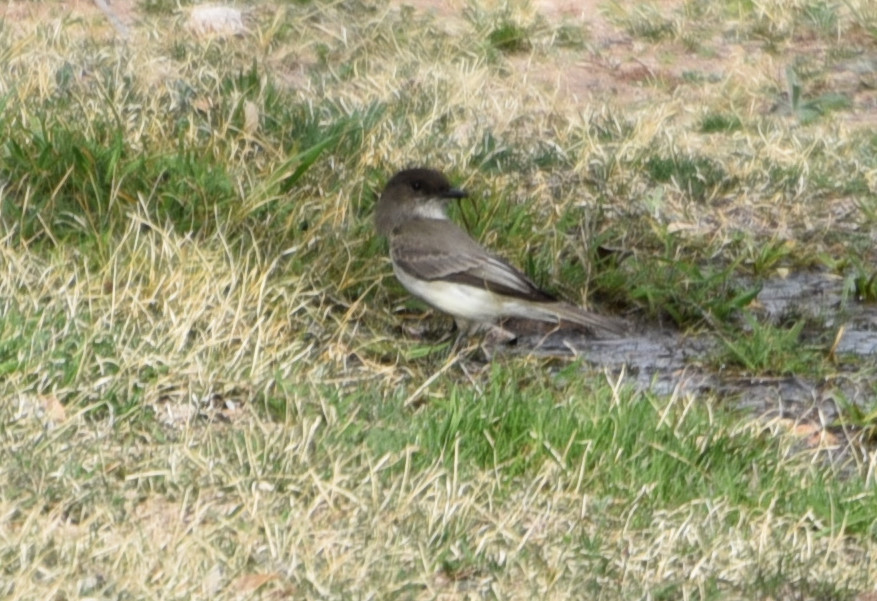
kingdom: Animalia
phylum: Chordata
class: Aves
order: Passeriformes
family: Tyrannidae
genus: Sayornis
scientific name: Sayornis phoebe
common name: Eastern phoebe
